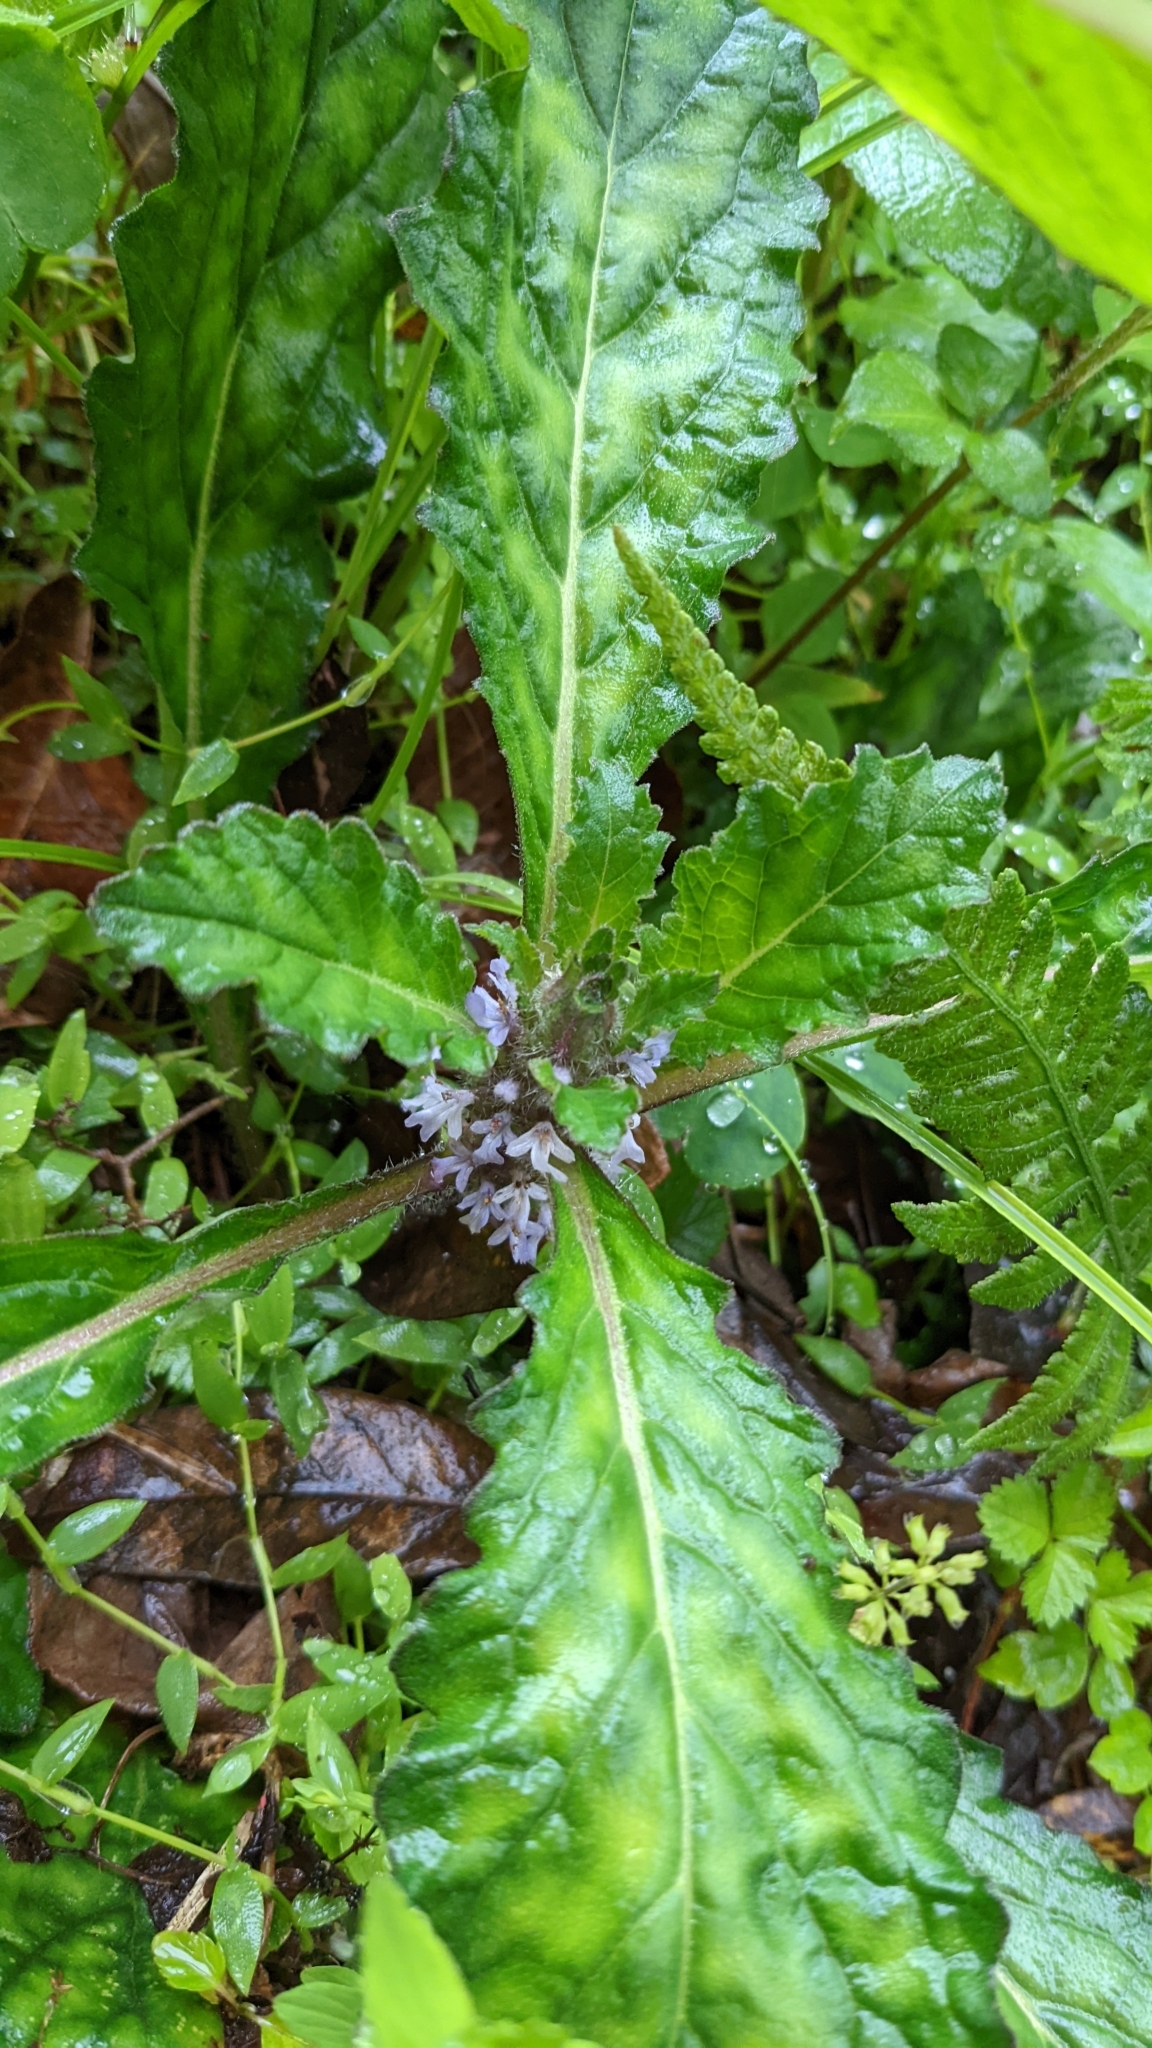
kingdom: Plantae
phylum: Tracheophyta
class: Magnoliopsida
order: Lamiales
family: Lamiaceae
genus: Ajuga
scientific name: Ajuga taiwanensis
